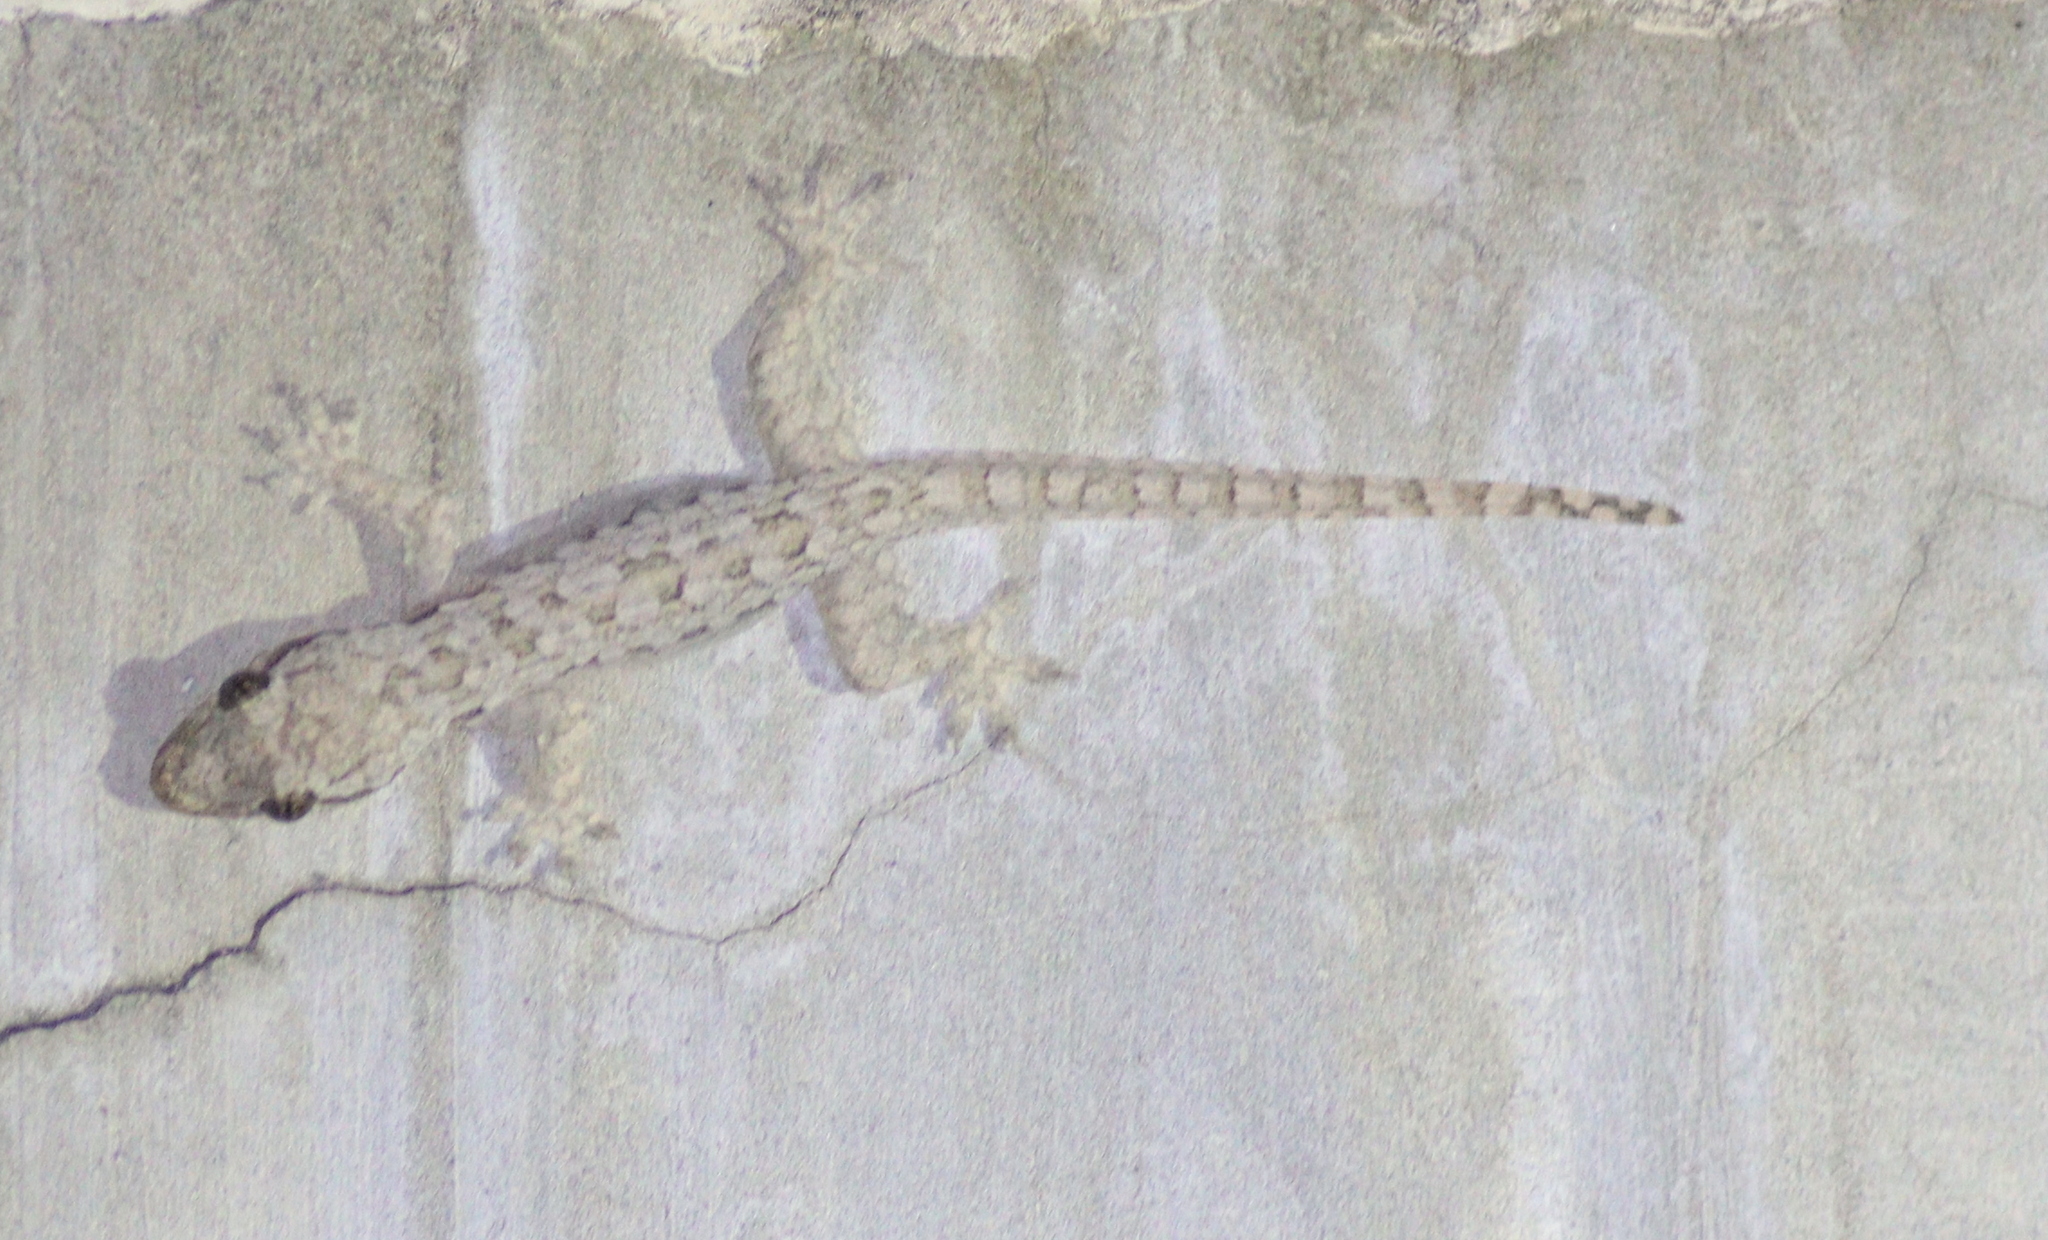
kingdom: Animalia
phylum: Chordata
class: Squamata
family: Gekkonidae
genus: Hemidactylus
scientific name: Hemidactylus platyurus
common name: Flat-tailed house gecko
